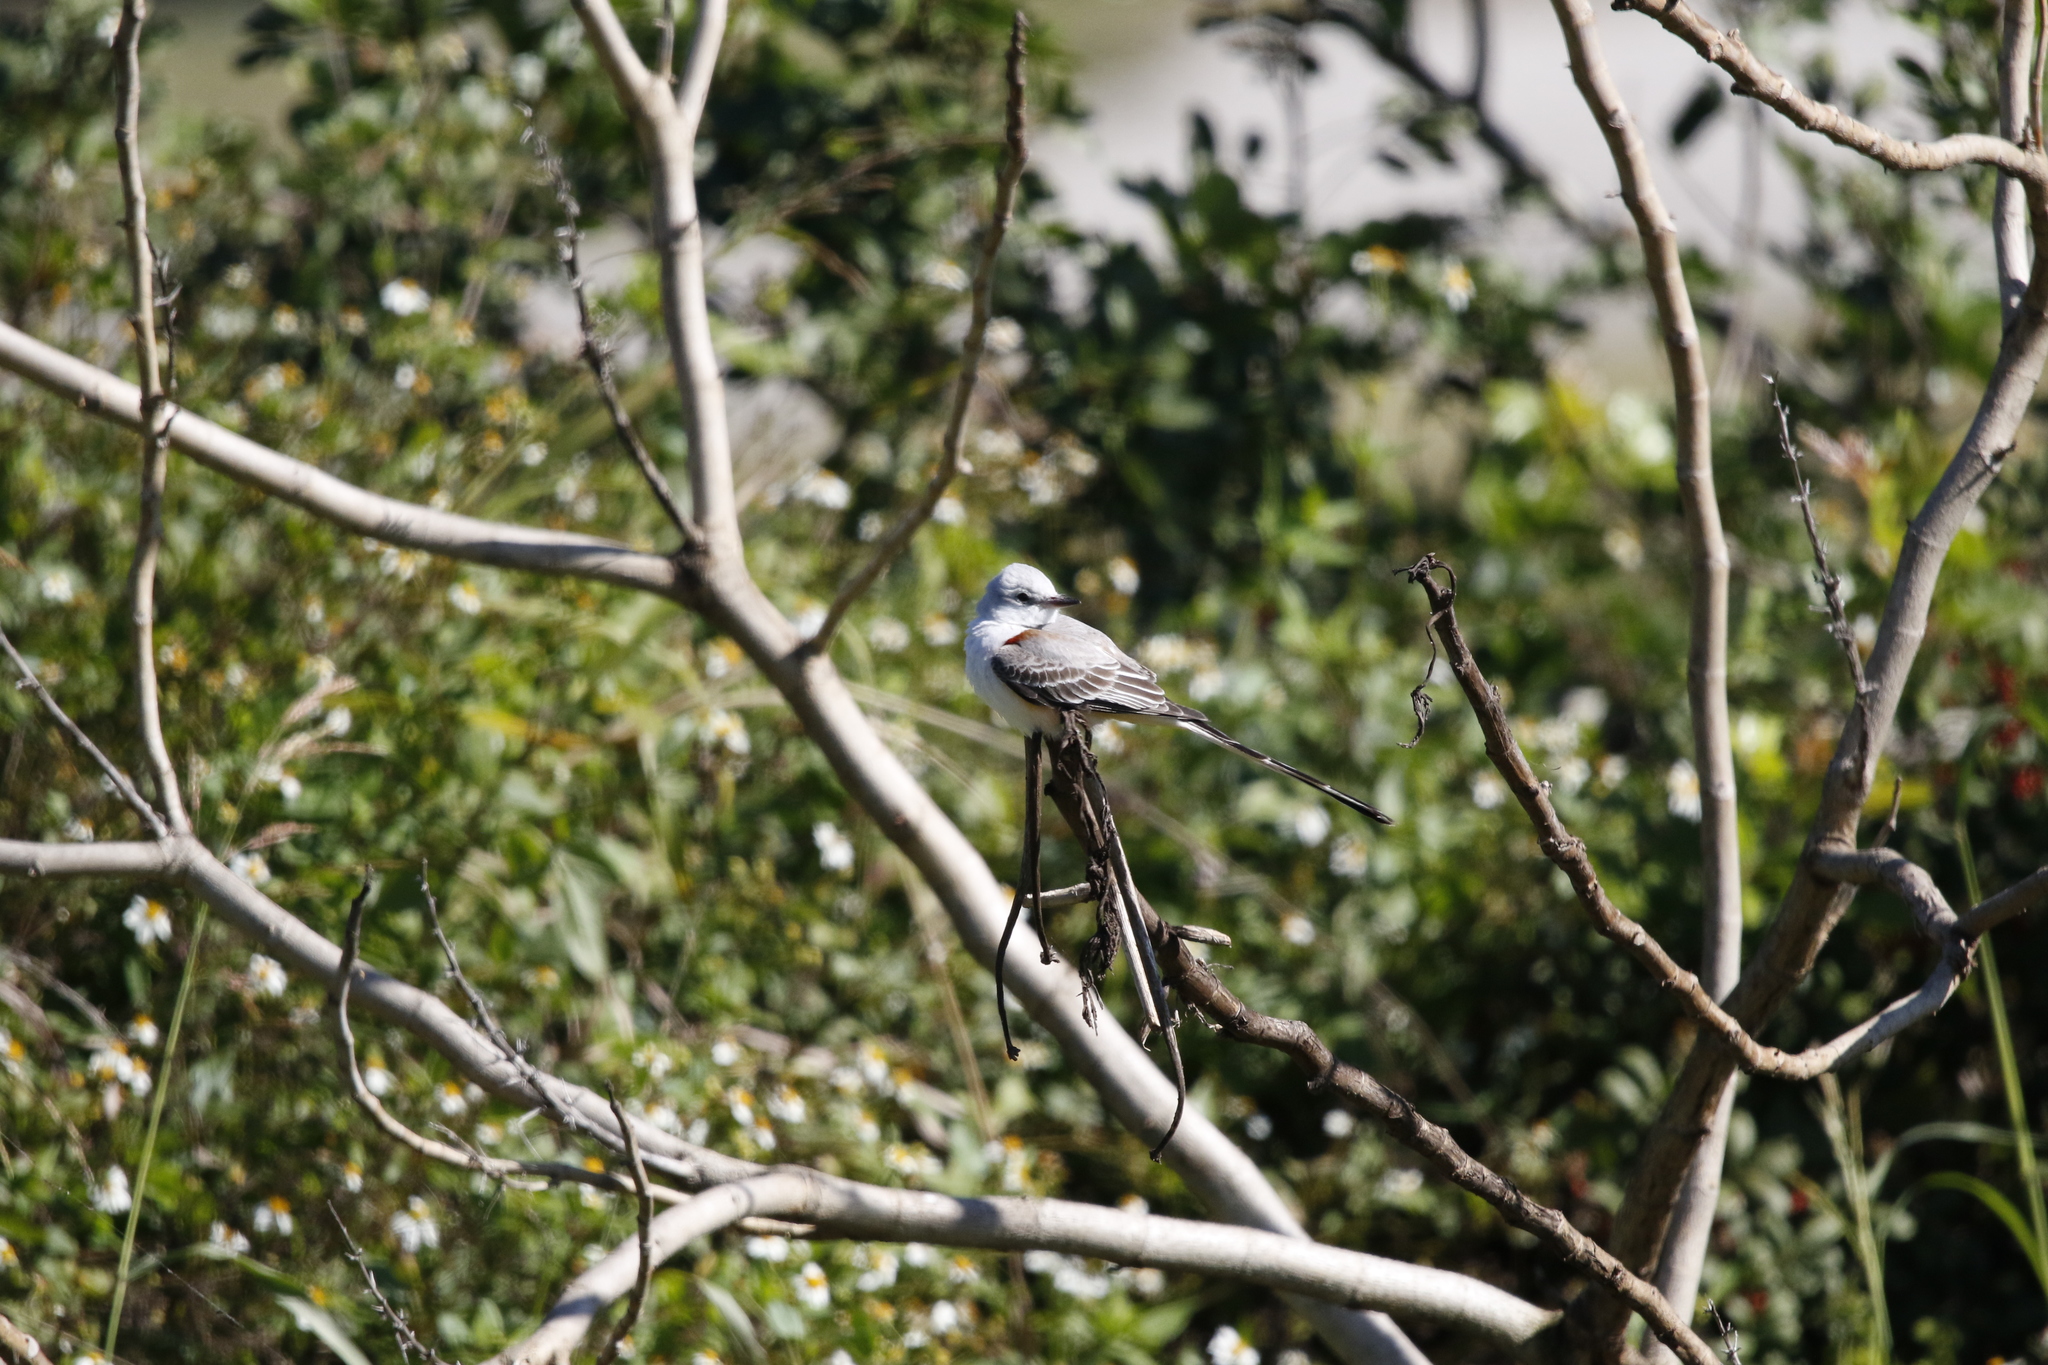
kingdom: Animalia
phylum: Chordata
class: Aves
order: Passeriformes
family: Tyrannidae
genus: Tyrannus
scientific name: Tyrannus forficatus
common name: Scissor-tailed flycatcher
